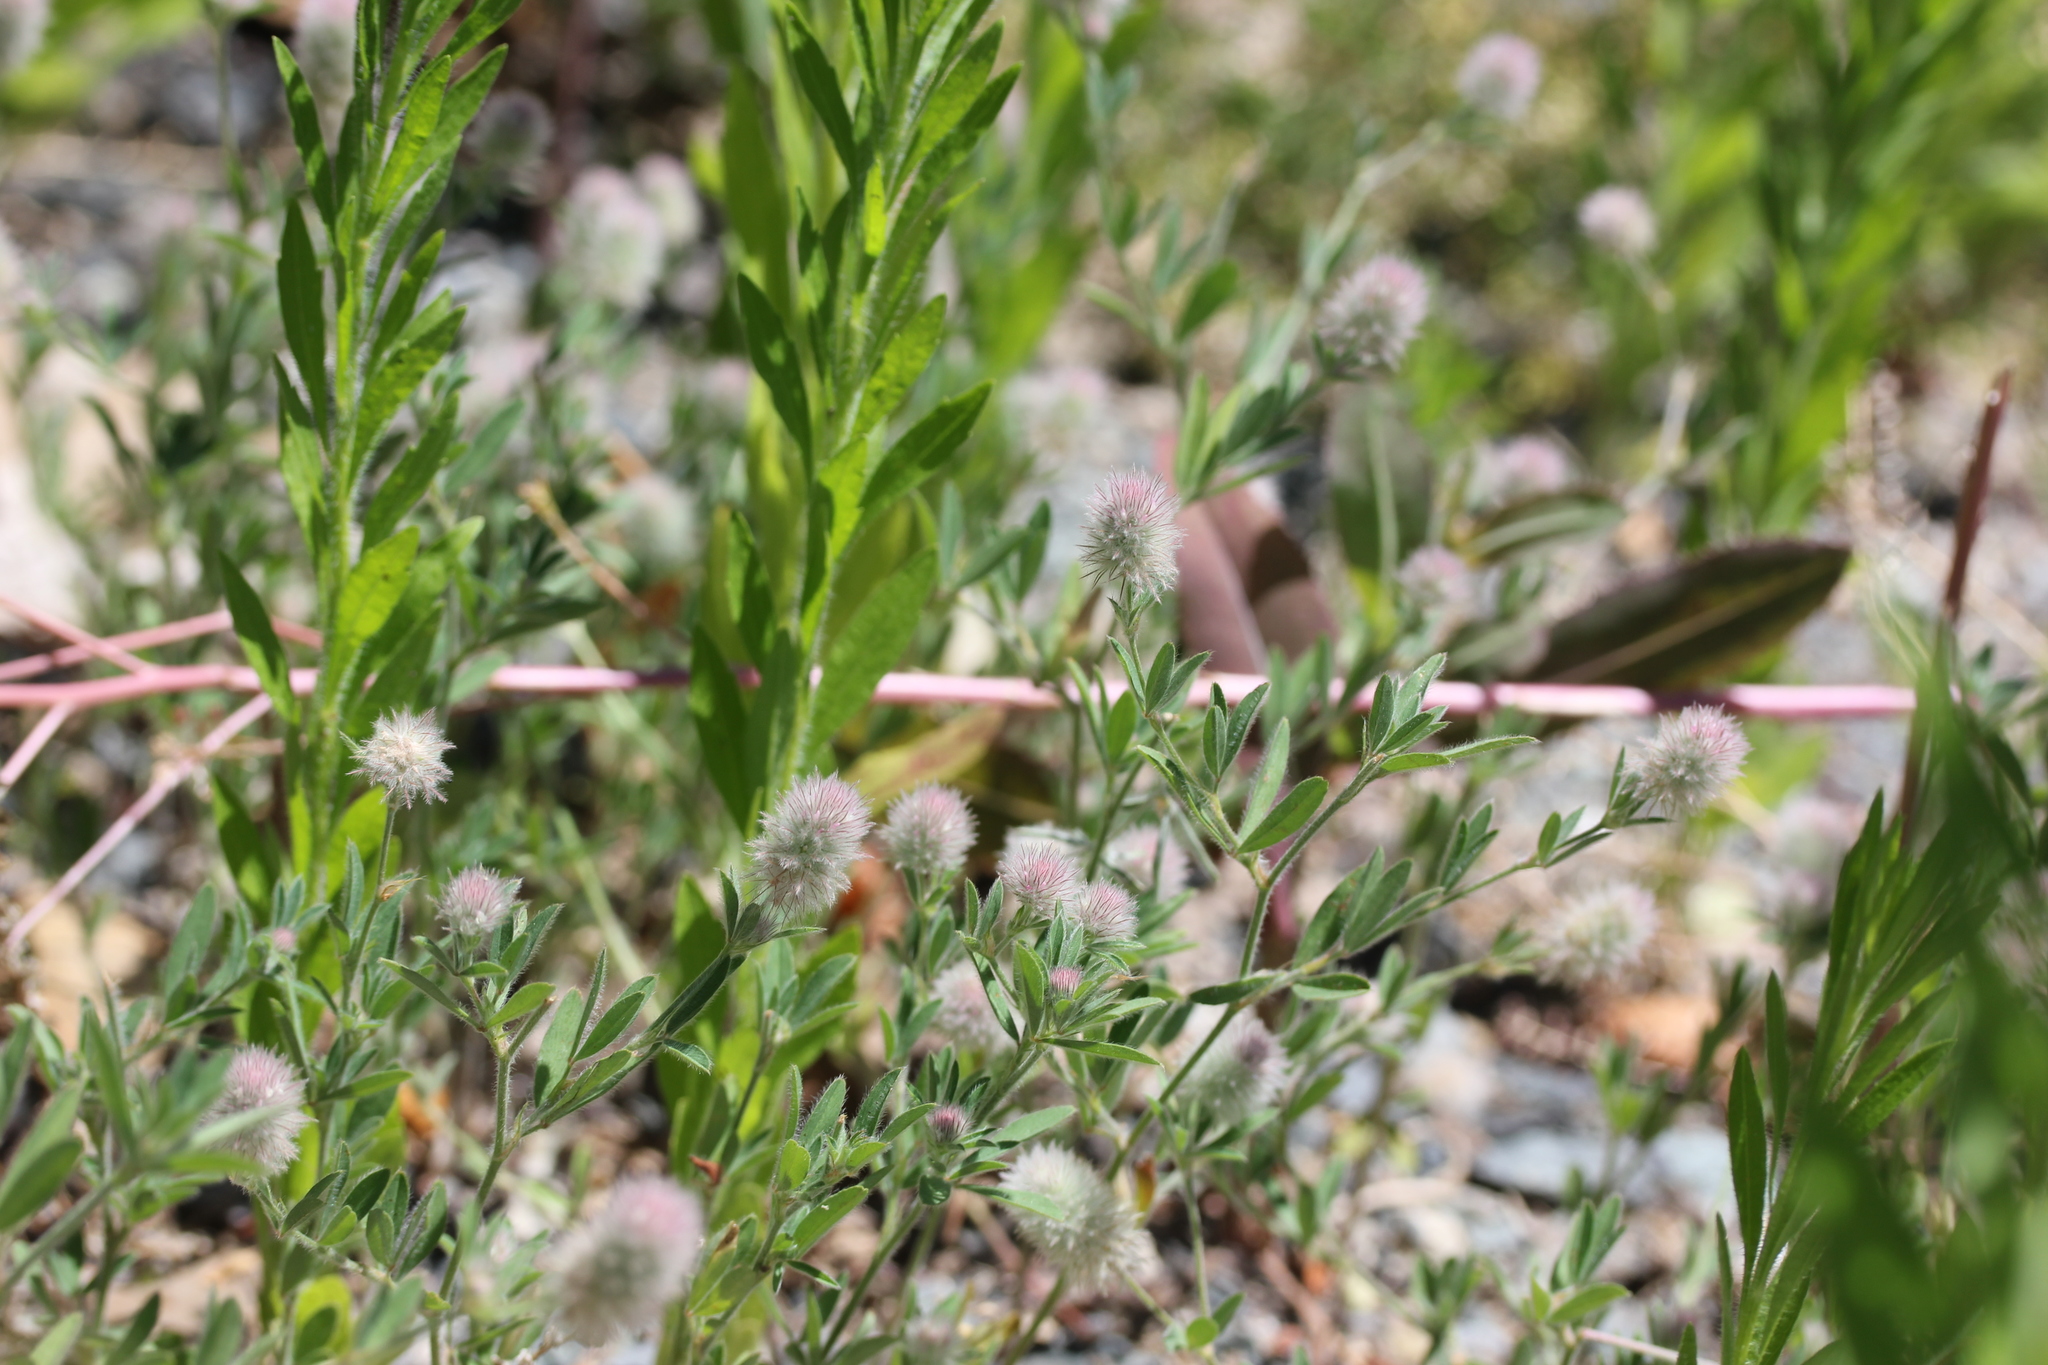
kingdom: Plantae
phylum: Tracheophyta
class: Magnoliopsida
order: Fabales
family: Fabaceae
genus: Trifolium
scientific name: Trifolium arvense
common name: Hare's-foot clover
